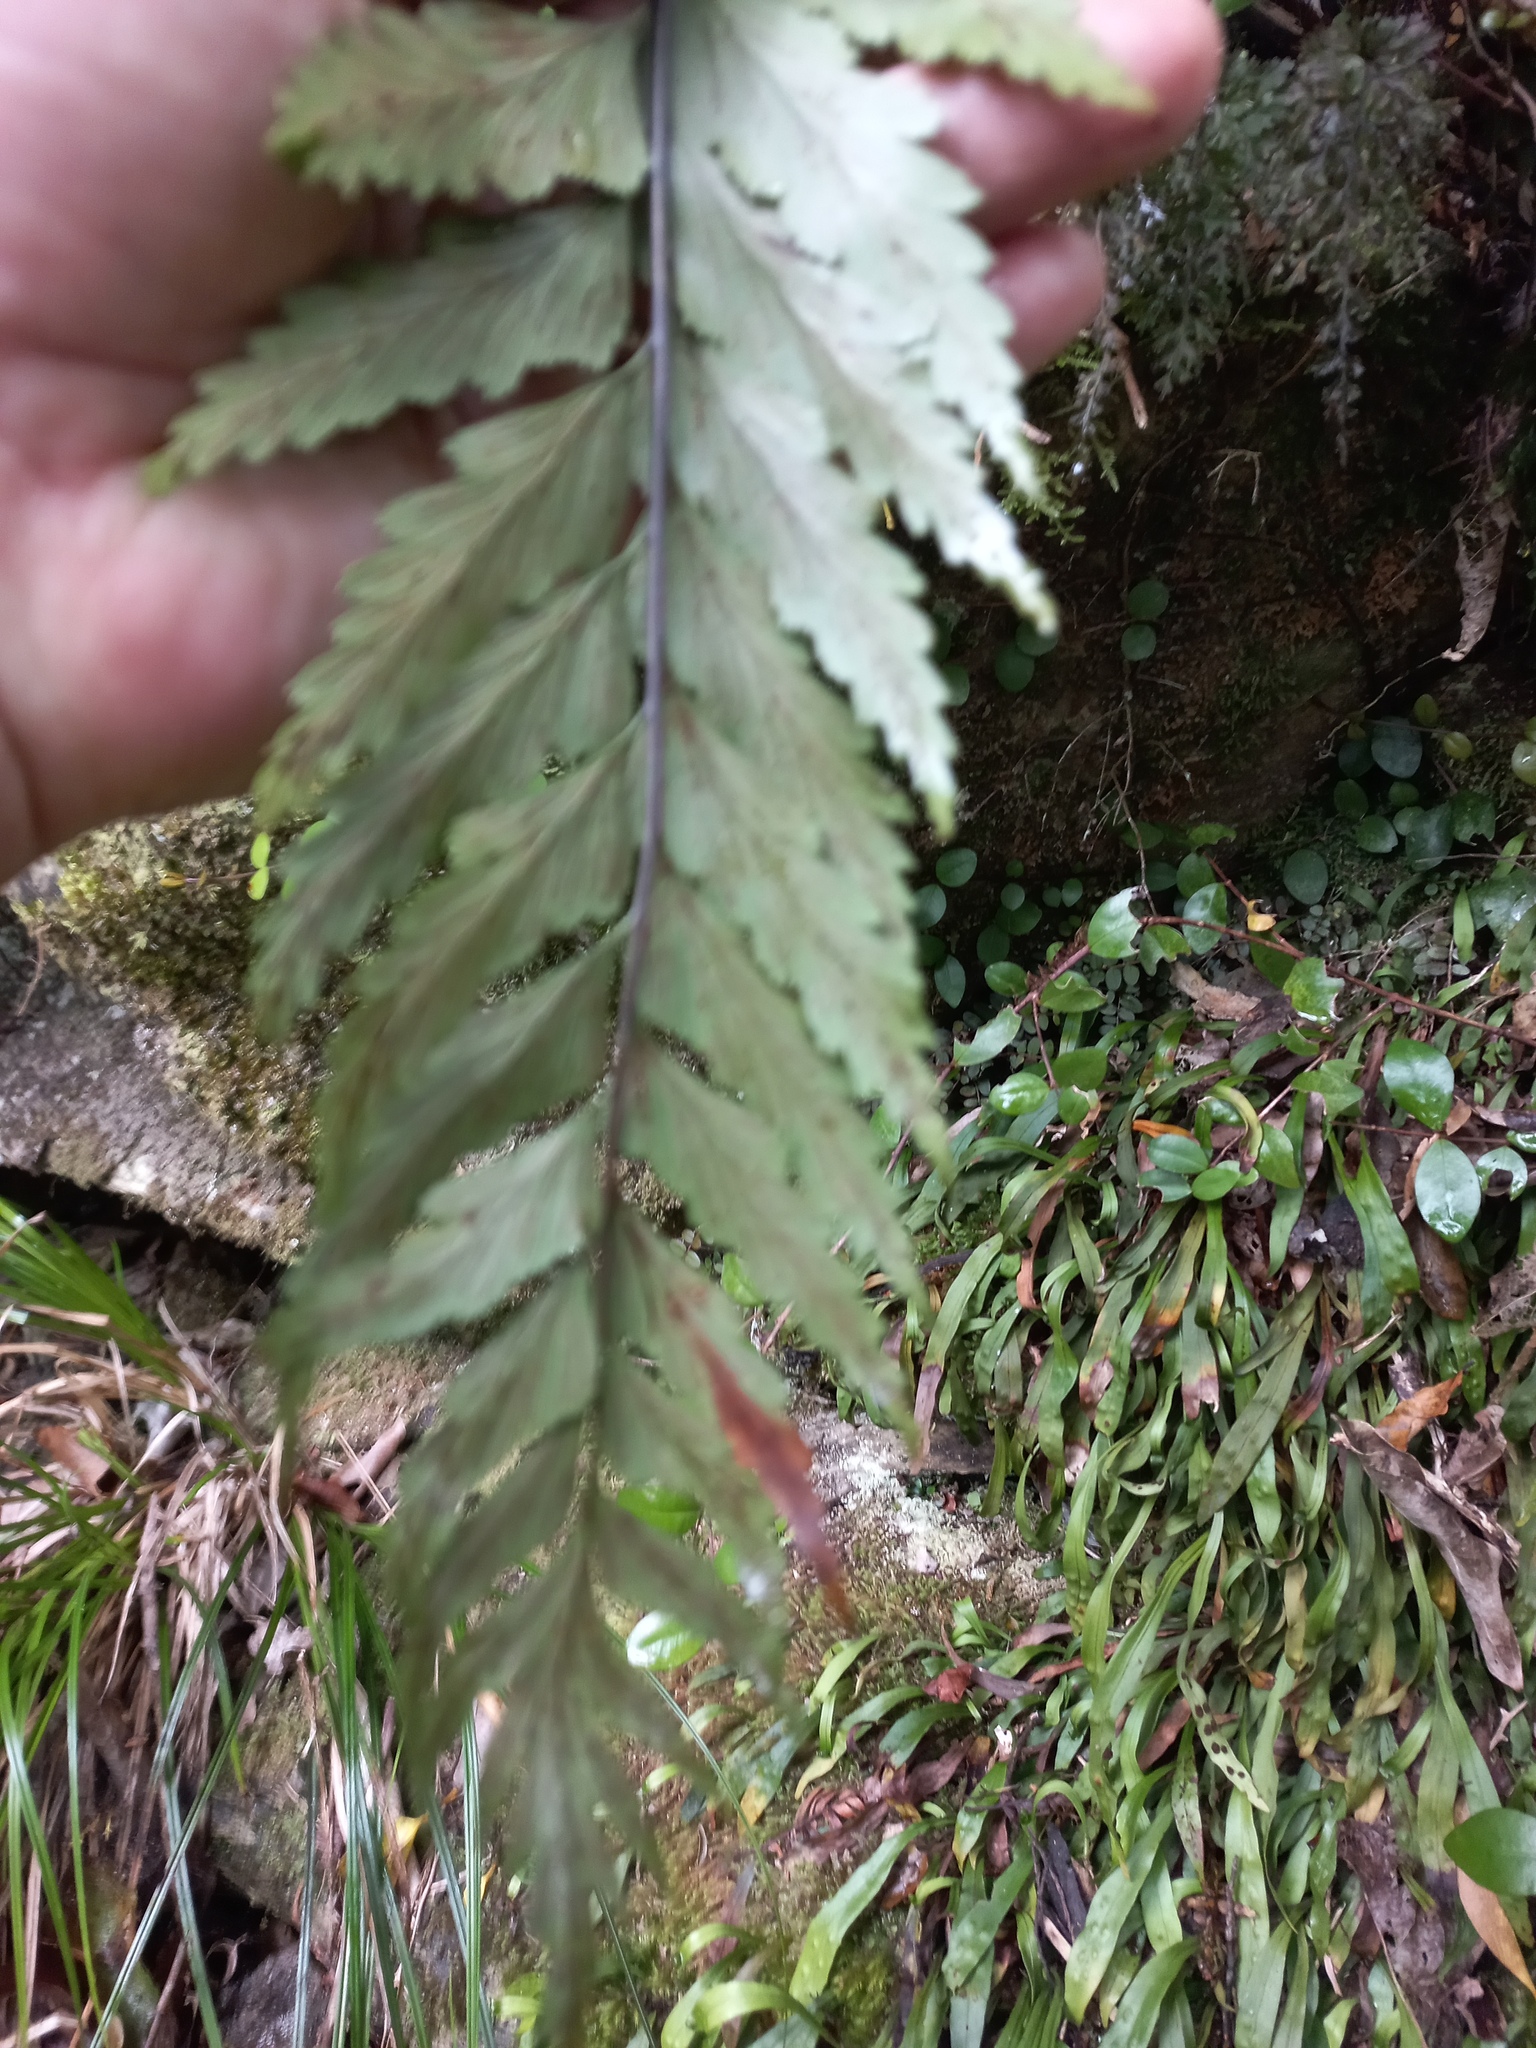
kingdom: Plantae
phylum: Tracheophyta
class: Polypodiopsida
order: Polypodiales
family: Aspleniaceae
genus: Asplenium
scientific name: Asplenium polyodon
